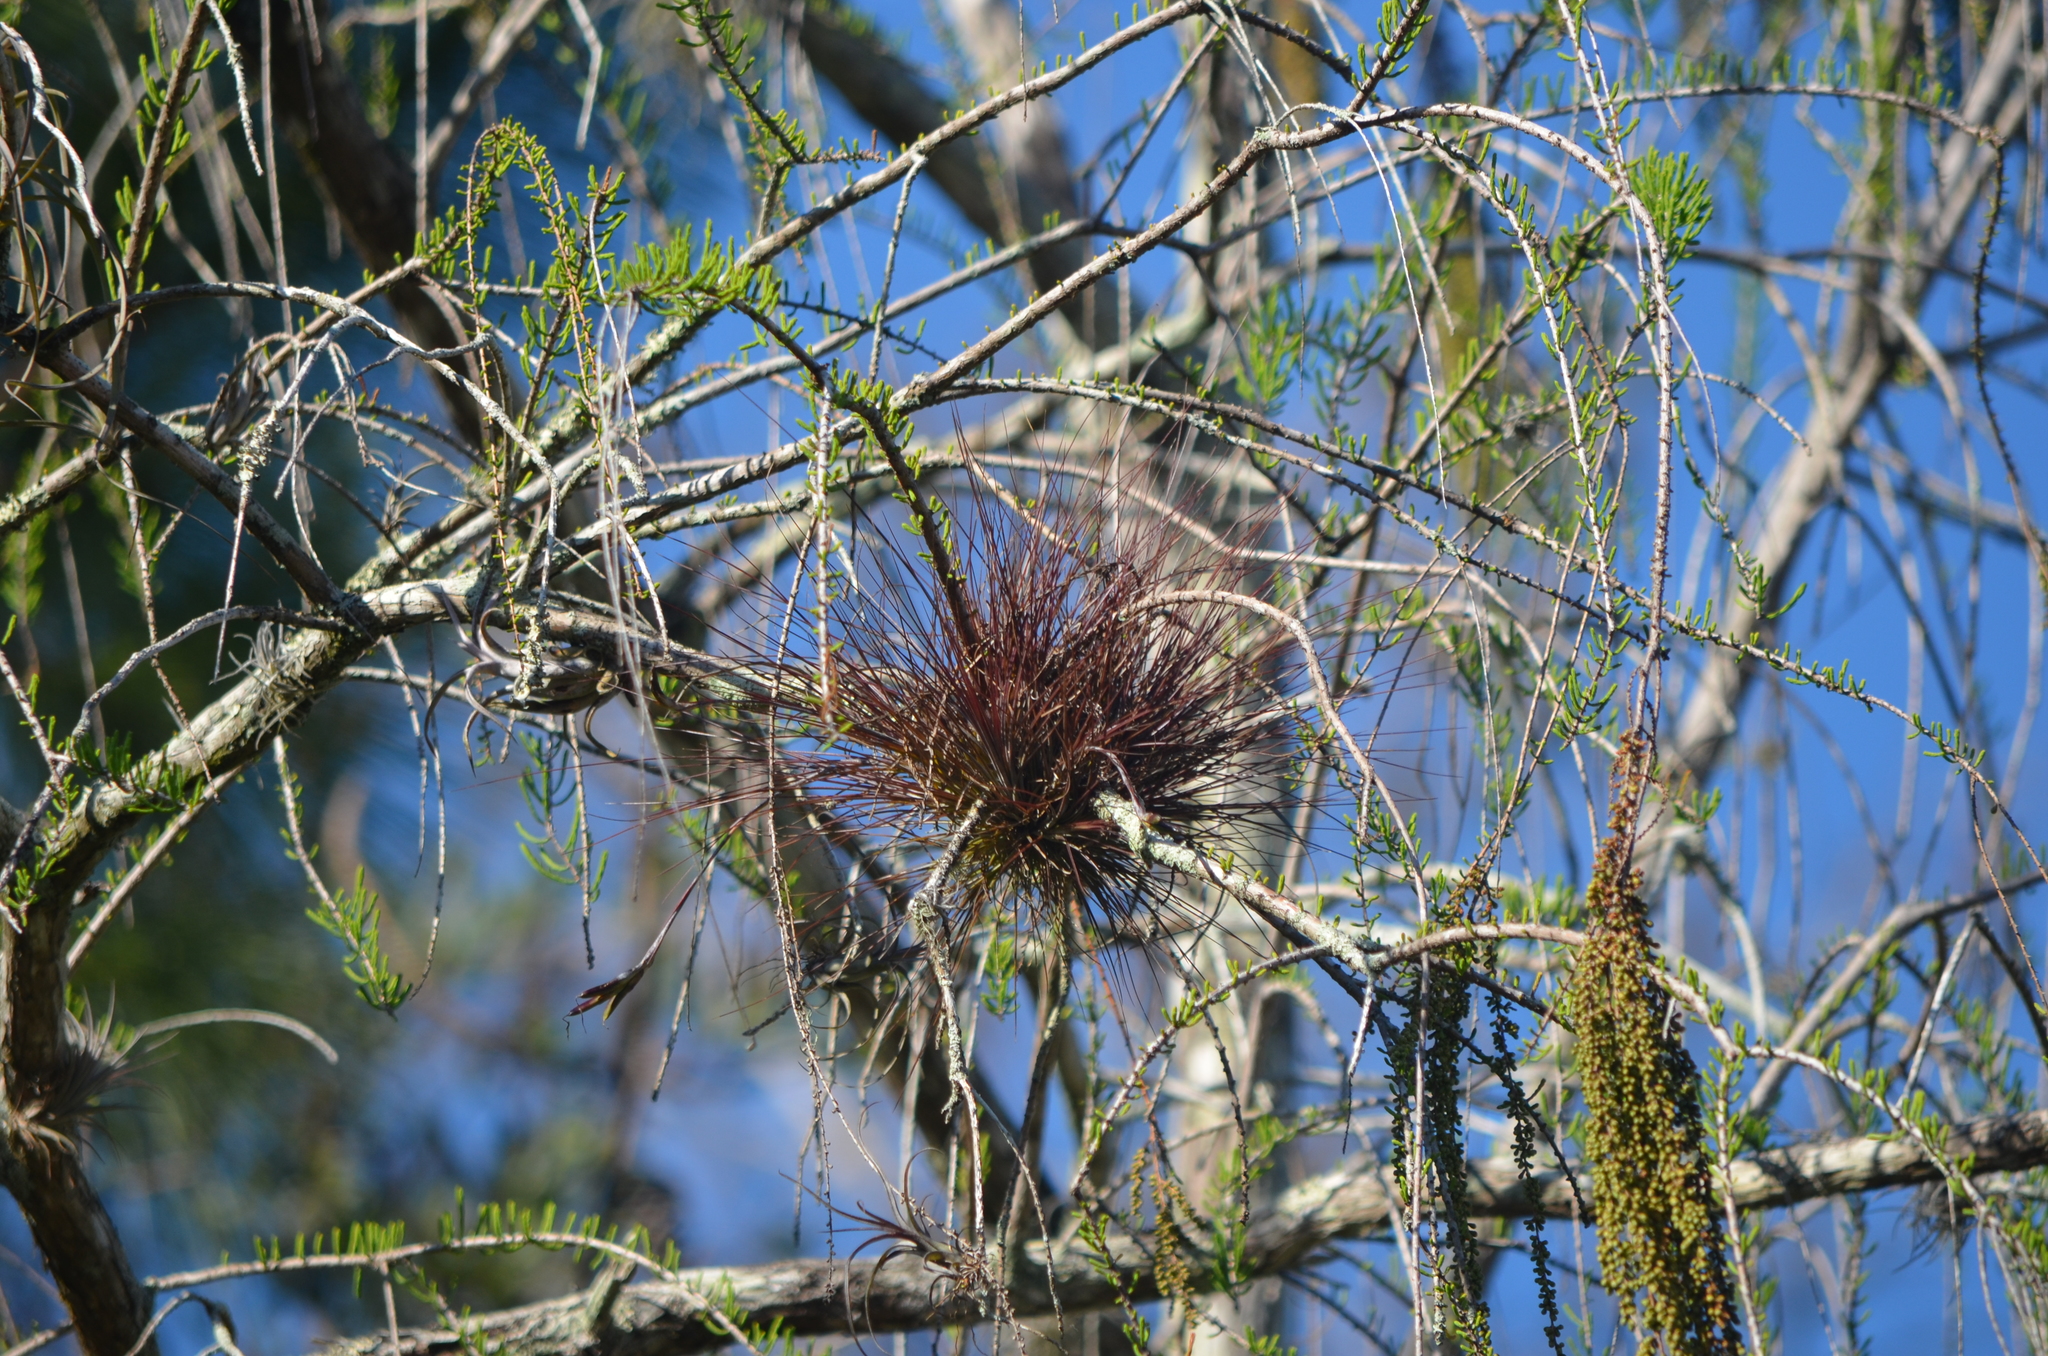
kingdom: Plantae
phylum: Tracheophyta
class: Liliopsida
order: Poales
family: Bromeliaceae
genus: Tillandsia
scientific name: Tillandsia setacea
